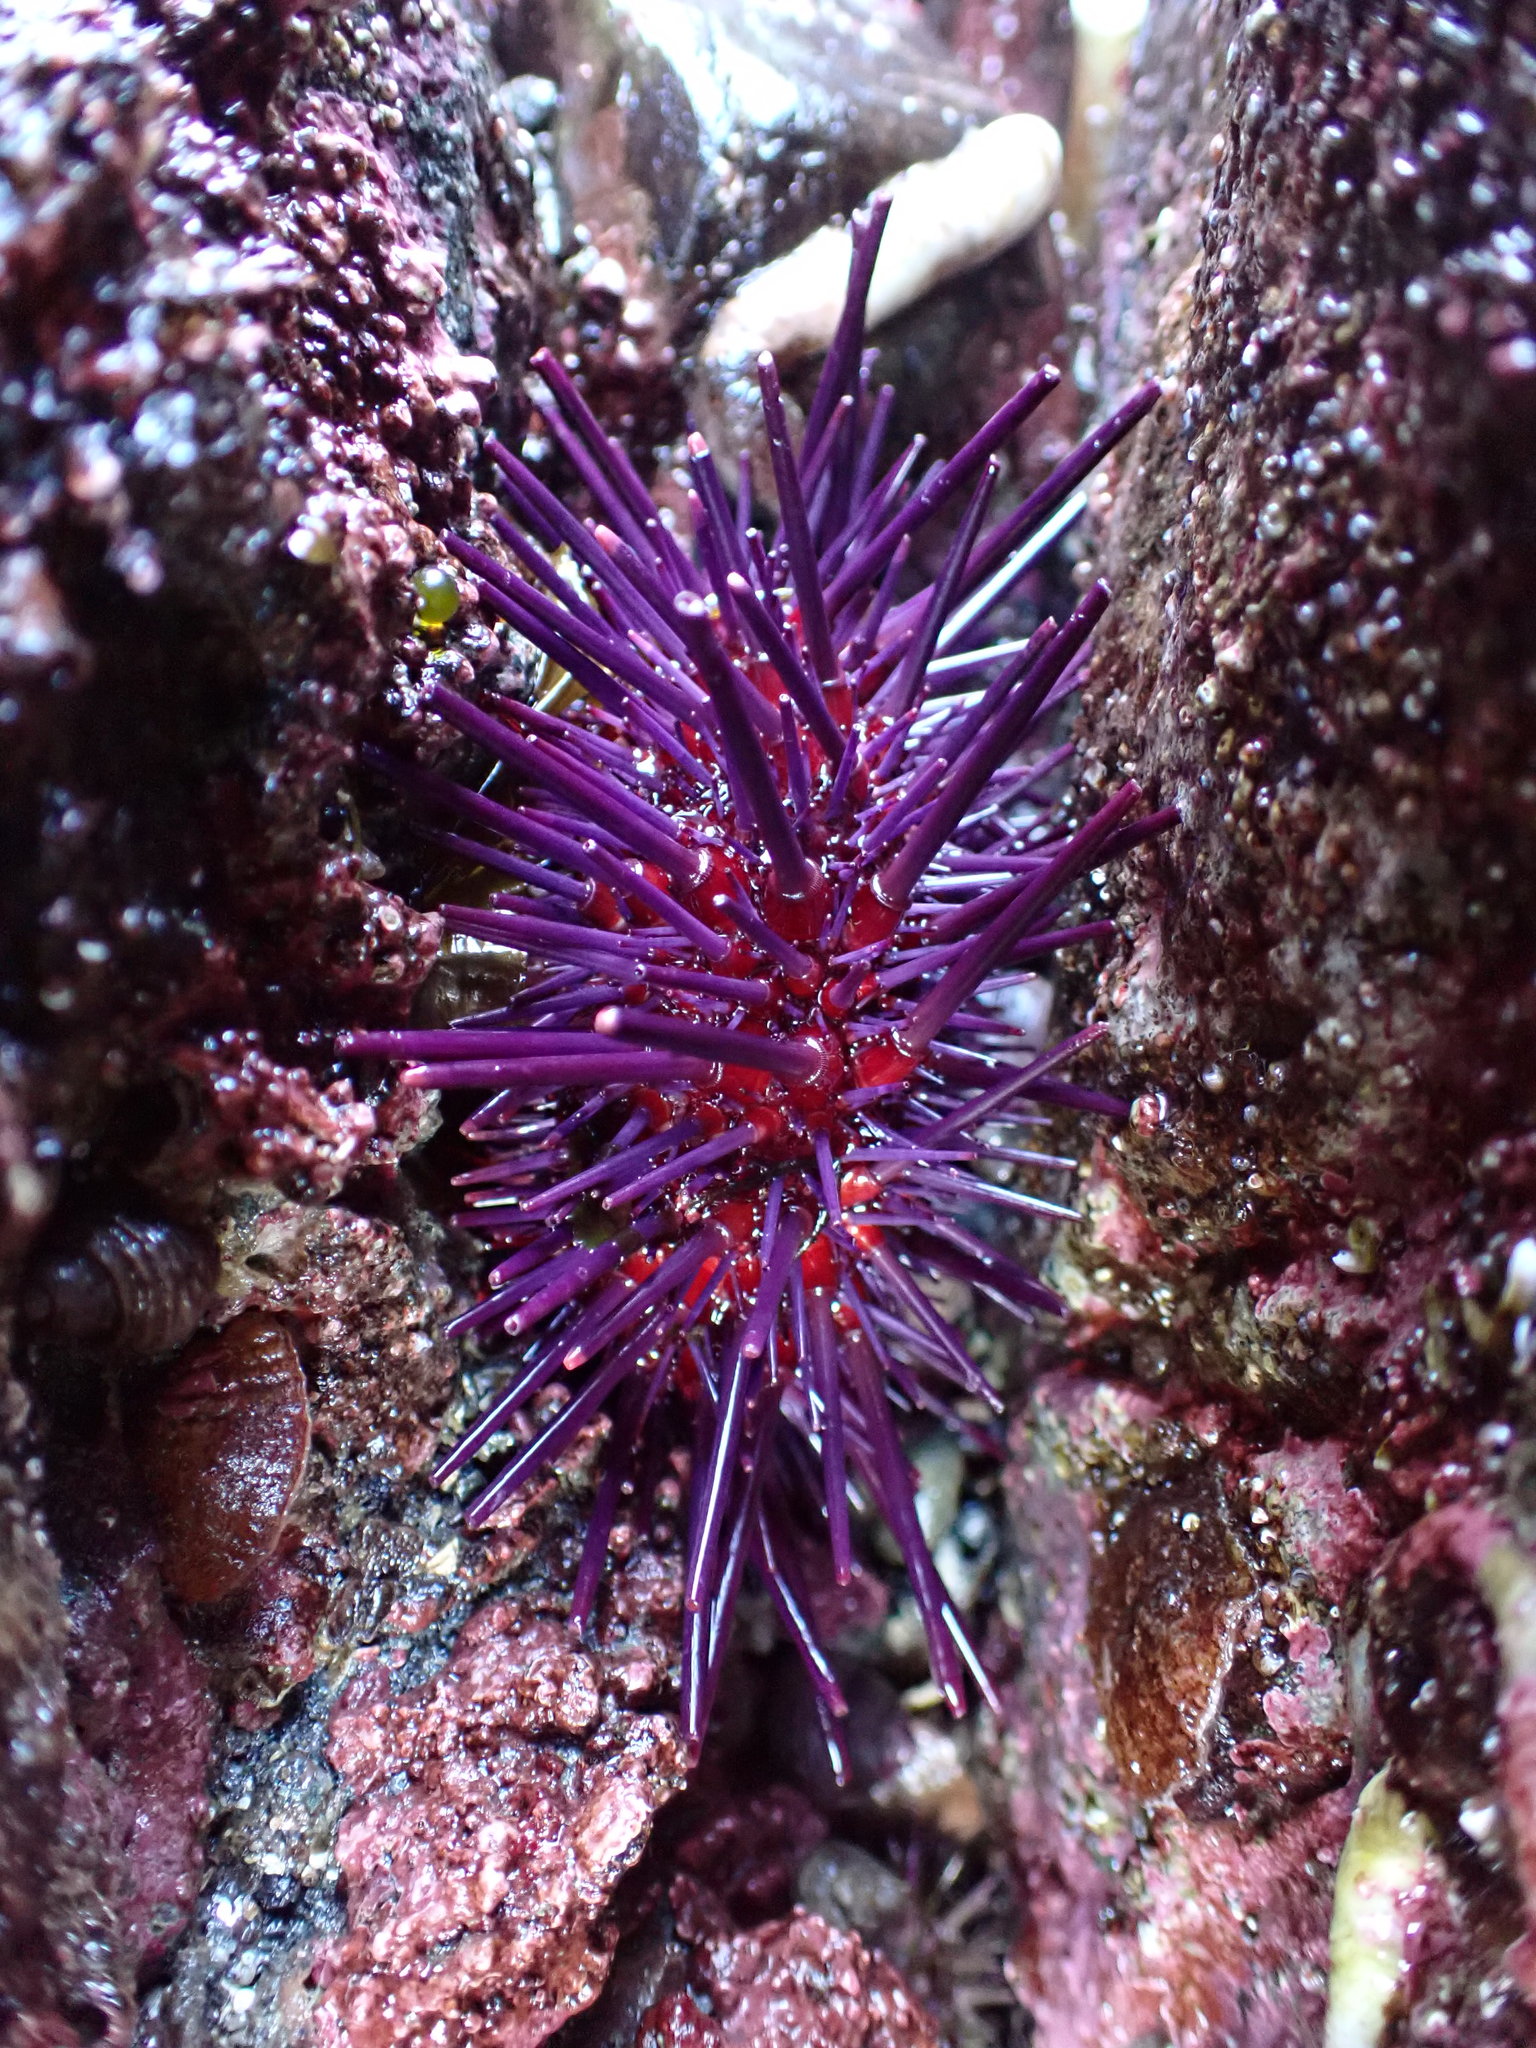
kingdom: Animalia
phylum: Echinodermata
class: Echinoidea
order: Camarodonta
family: Strongylocentrotidae
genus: Mesocentrotus
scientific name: Mesocentrotus franciscanus
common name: Red sea urchin
